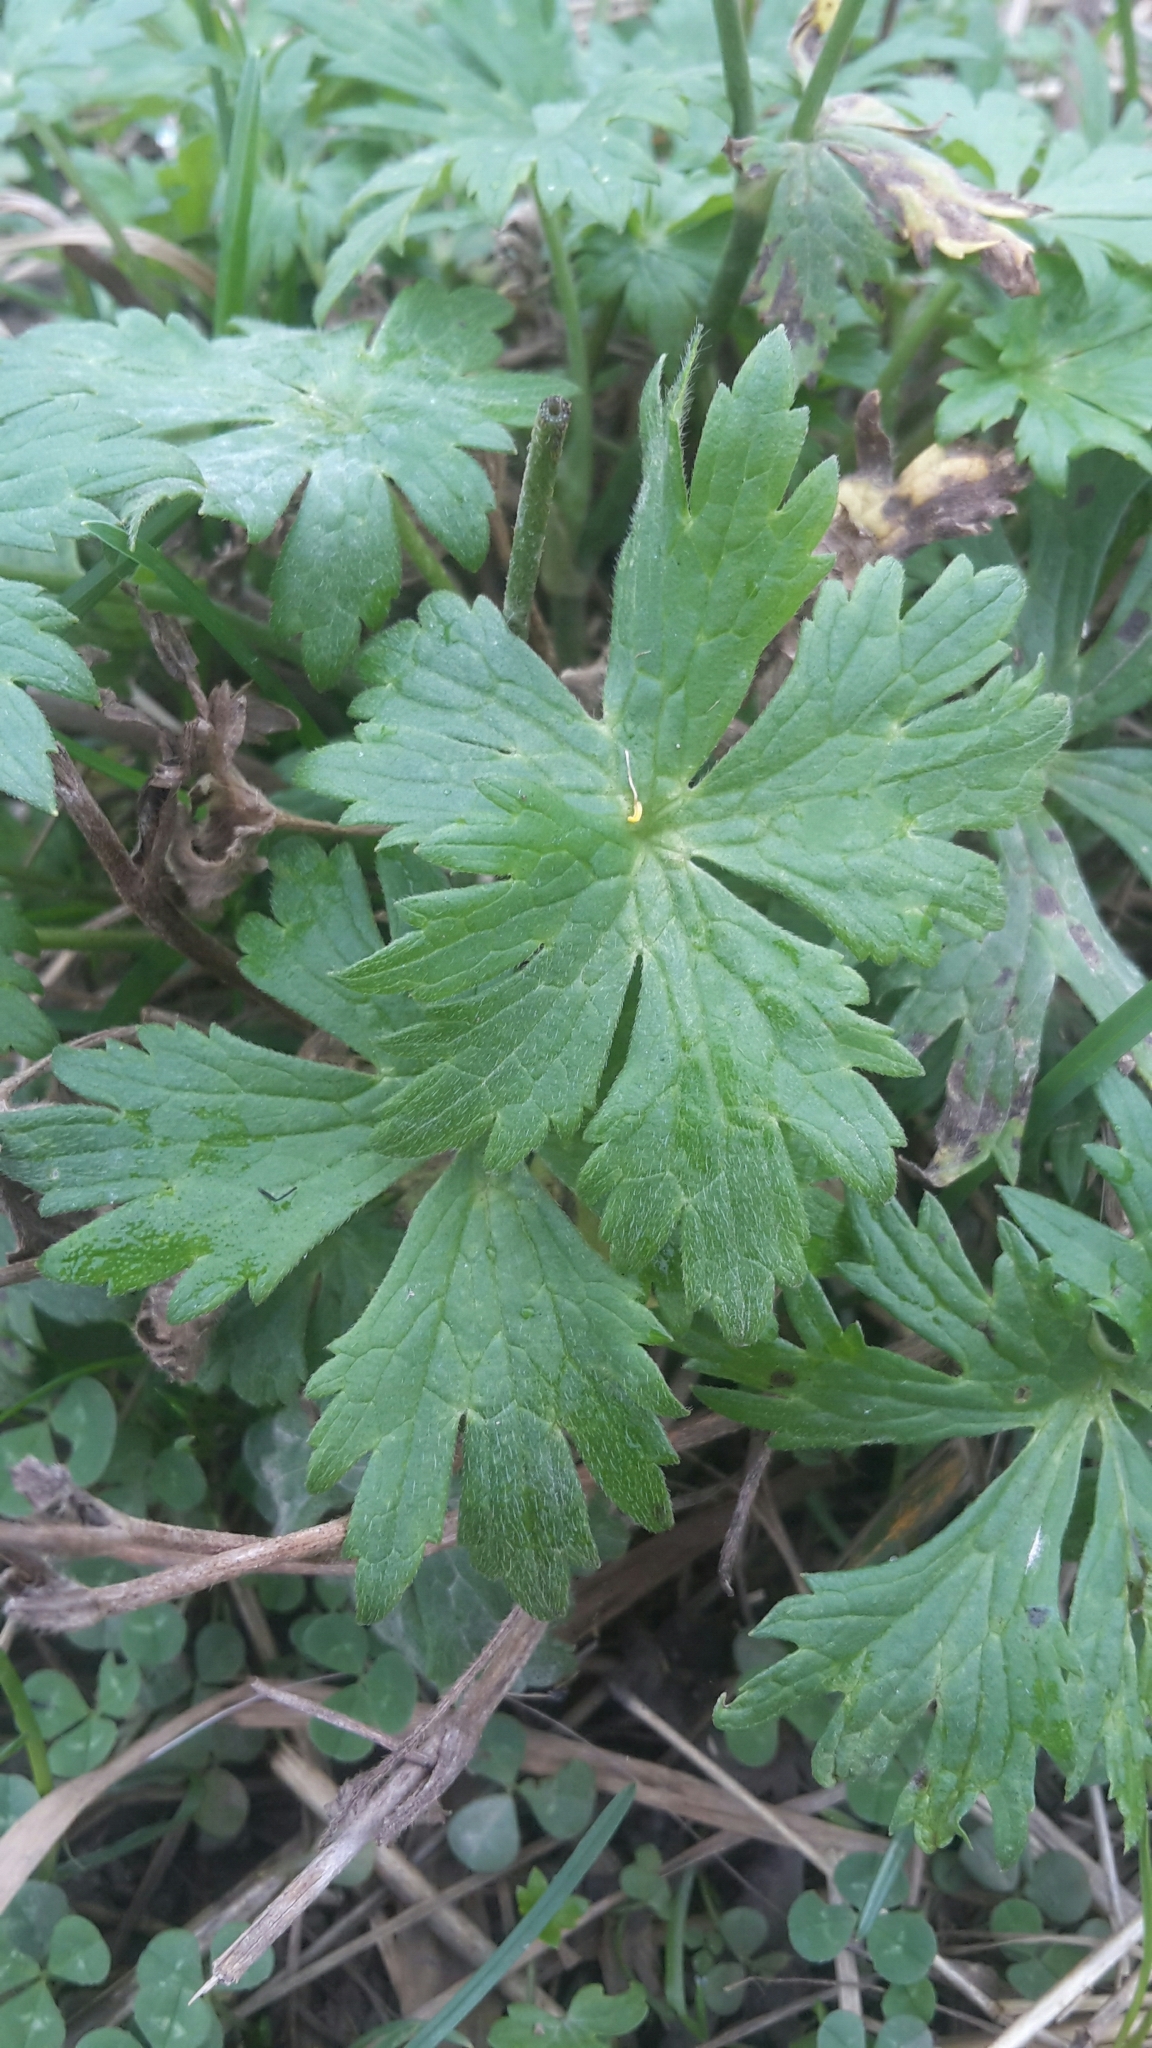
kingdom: Plantae
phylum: Tracheophyta
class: Magnoliopsida
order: Ranunculales
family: Ranunculaceae
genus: Ranunculus
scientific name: Ranunculus repens
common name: Creeping buttercup
